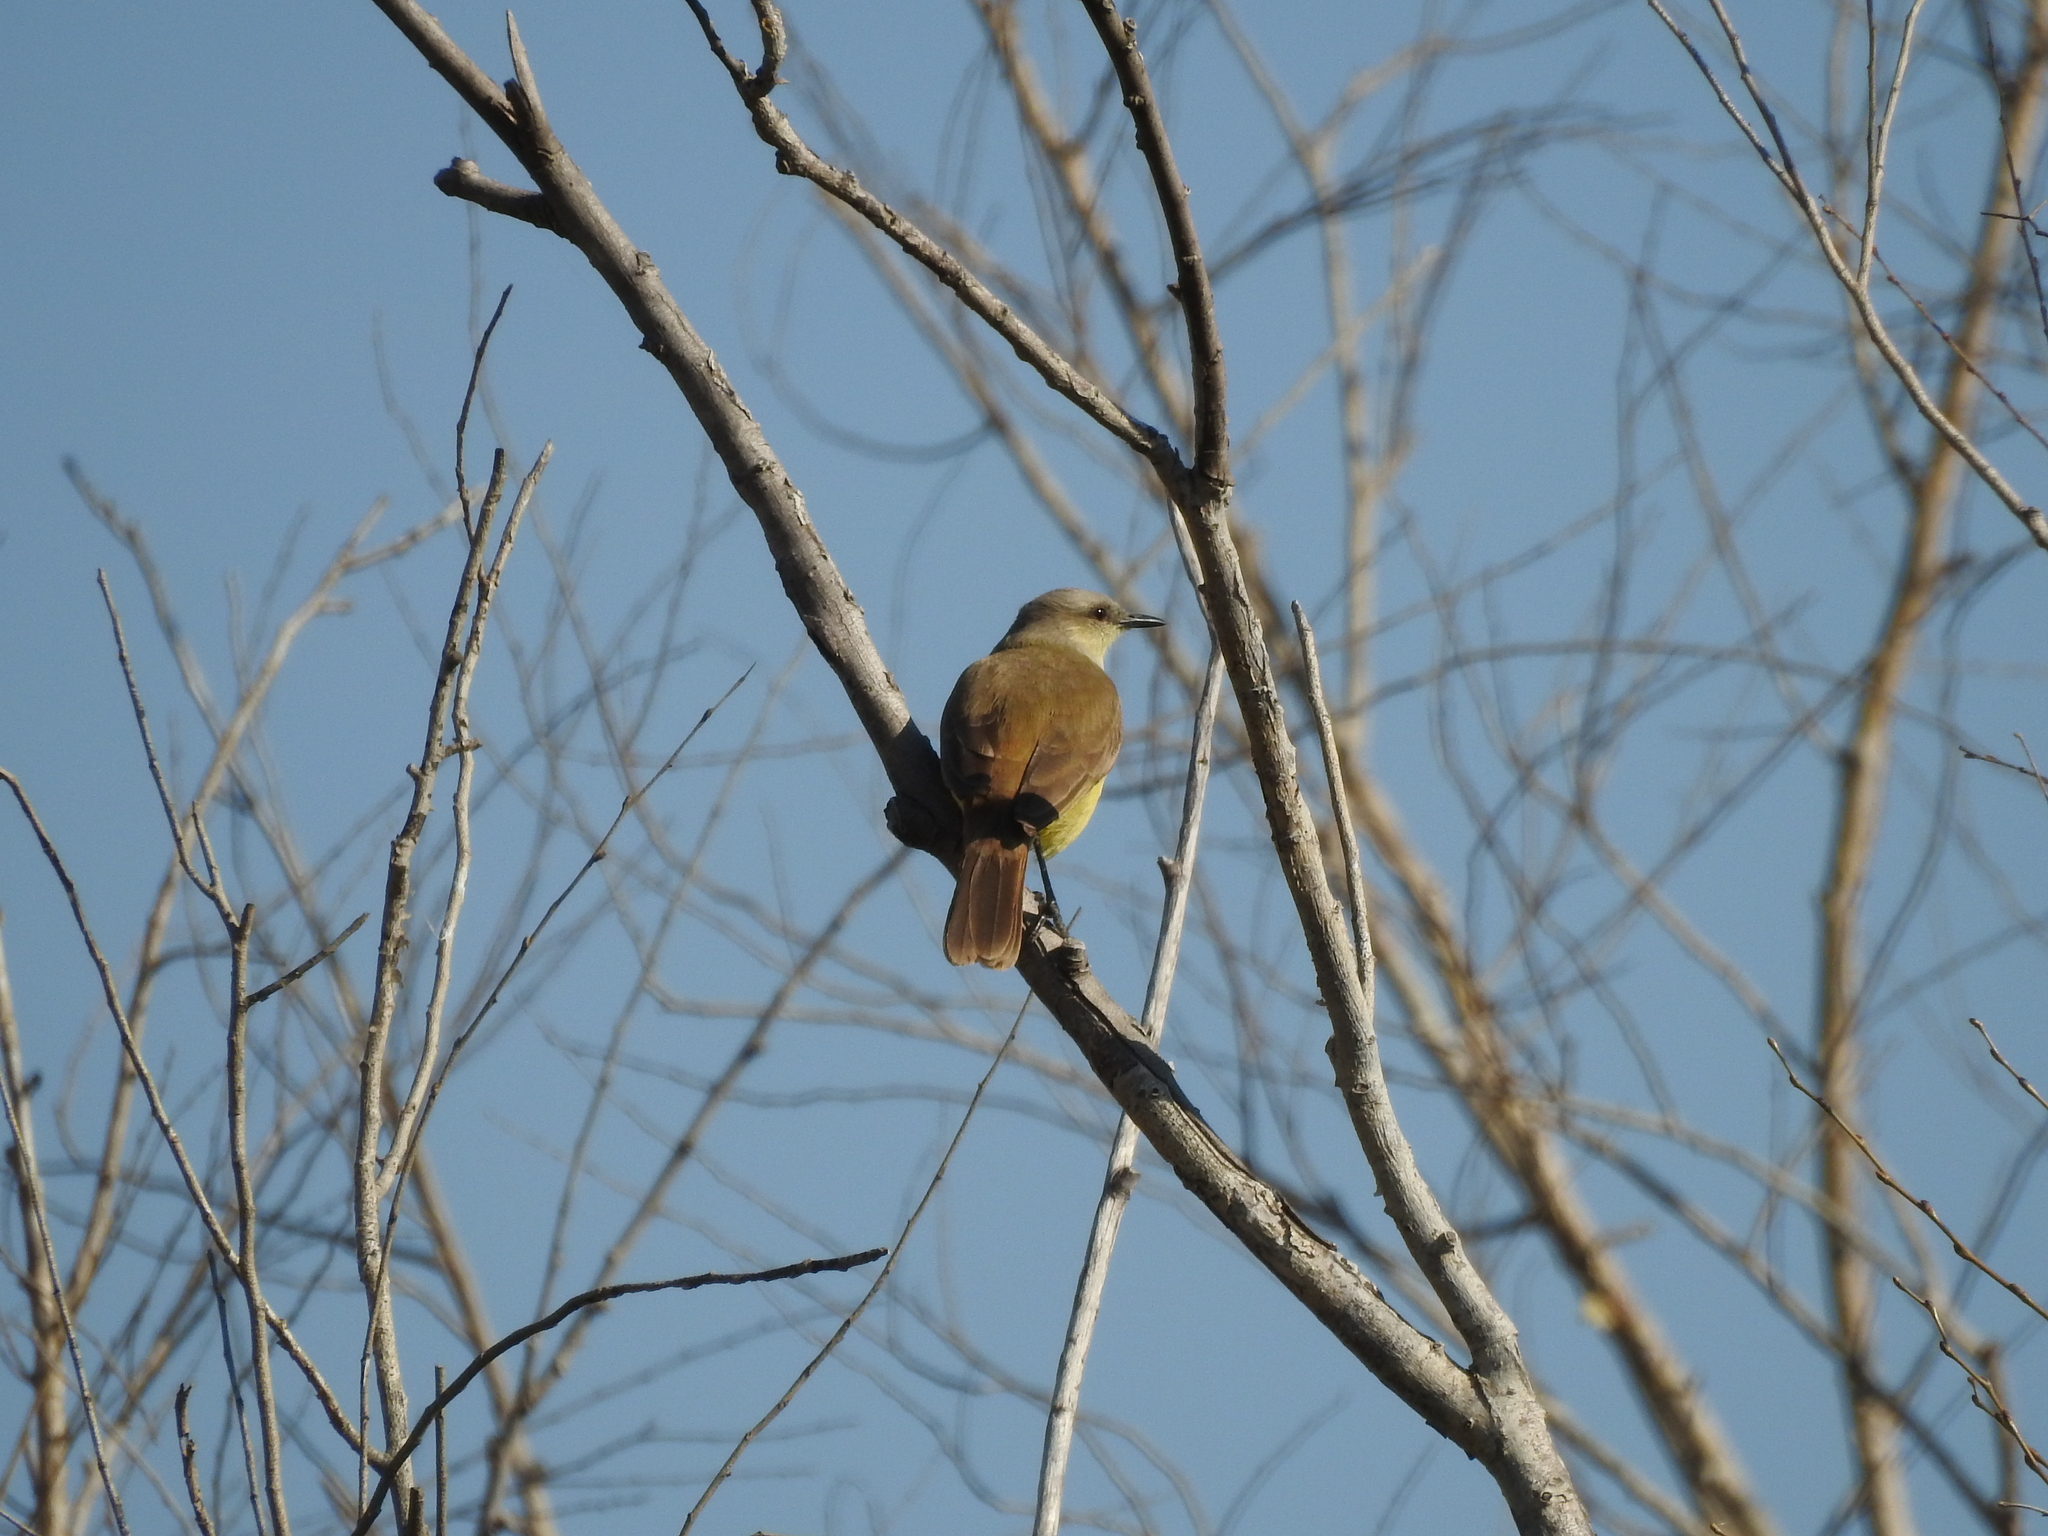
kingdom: Animalia
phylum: Chordata
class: Aves
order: Passeriformes
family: Tyrannidae
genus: Machetornis
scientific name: Machetornis rixosa
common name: Cattle tyrant
